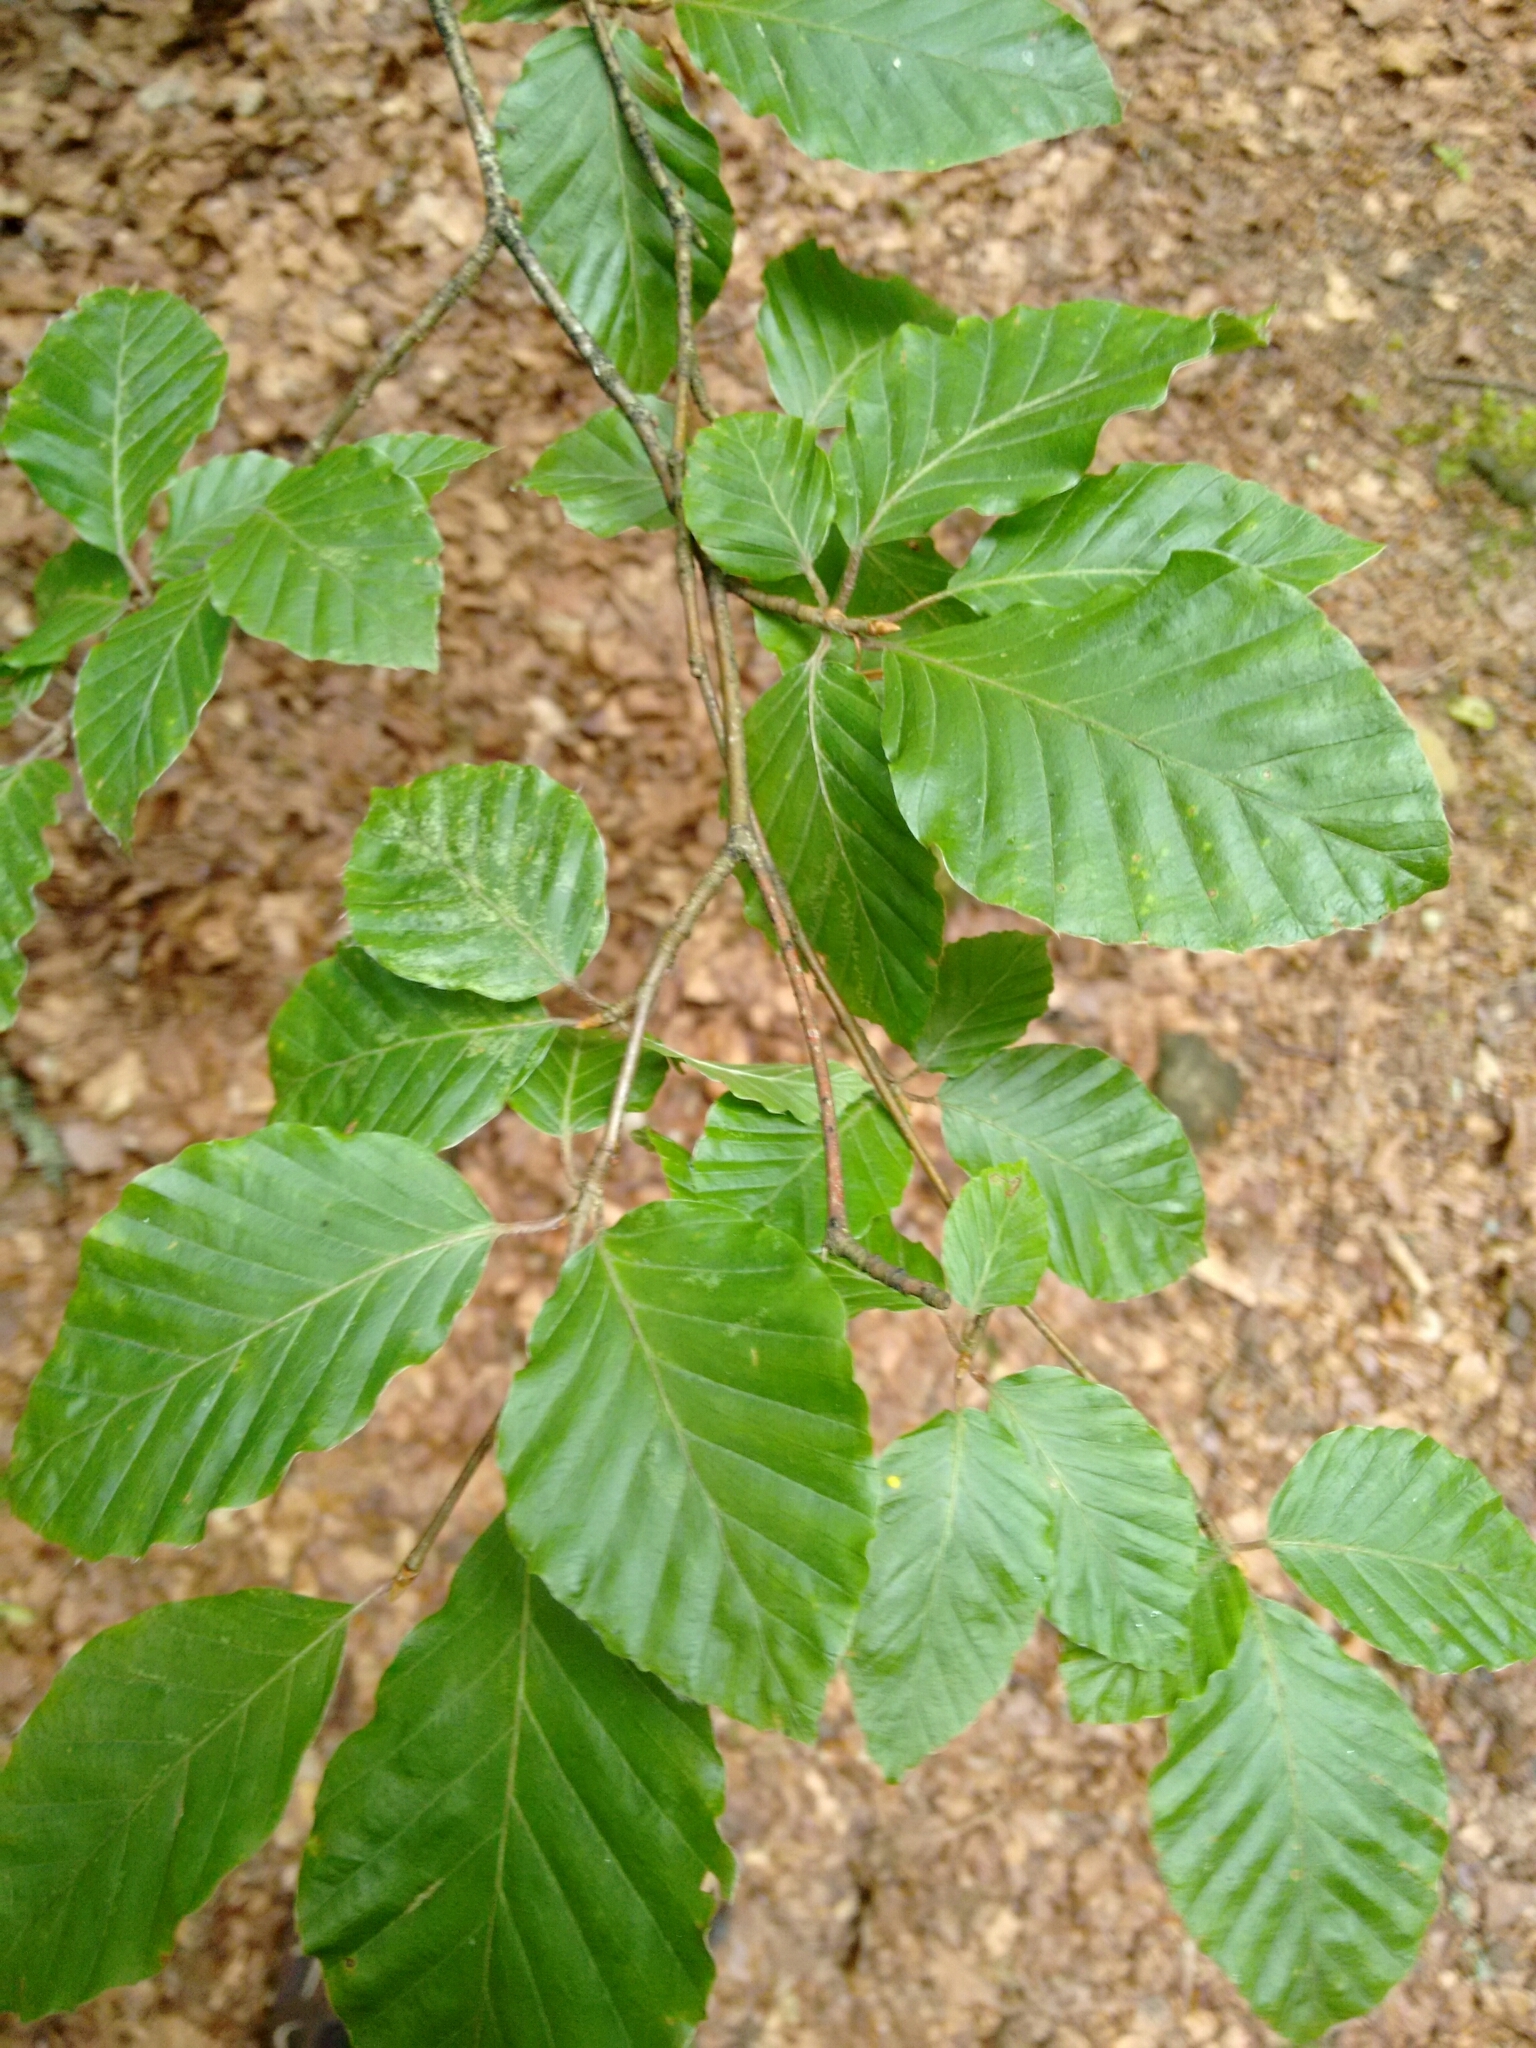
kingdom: Plantae
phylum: Tracheophyta
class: Magnoliopsida
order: Fagales
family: Fagaceae
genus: Fagus
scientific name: Fagus sylvatica
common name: Beech
